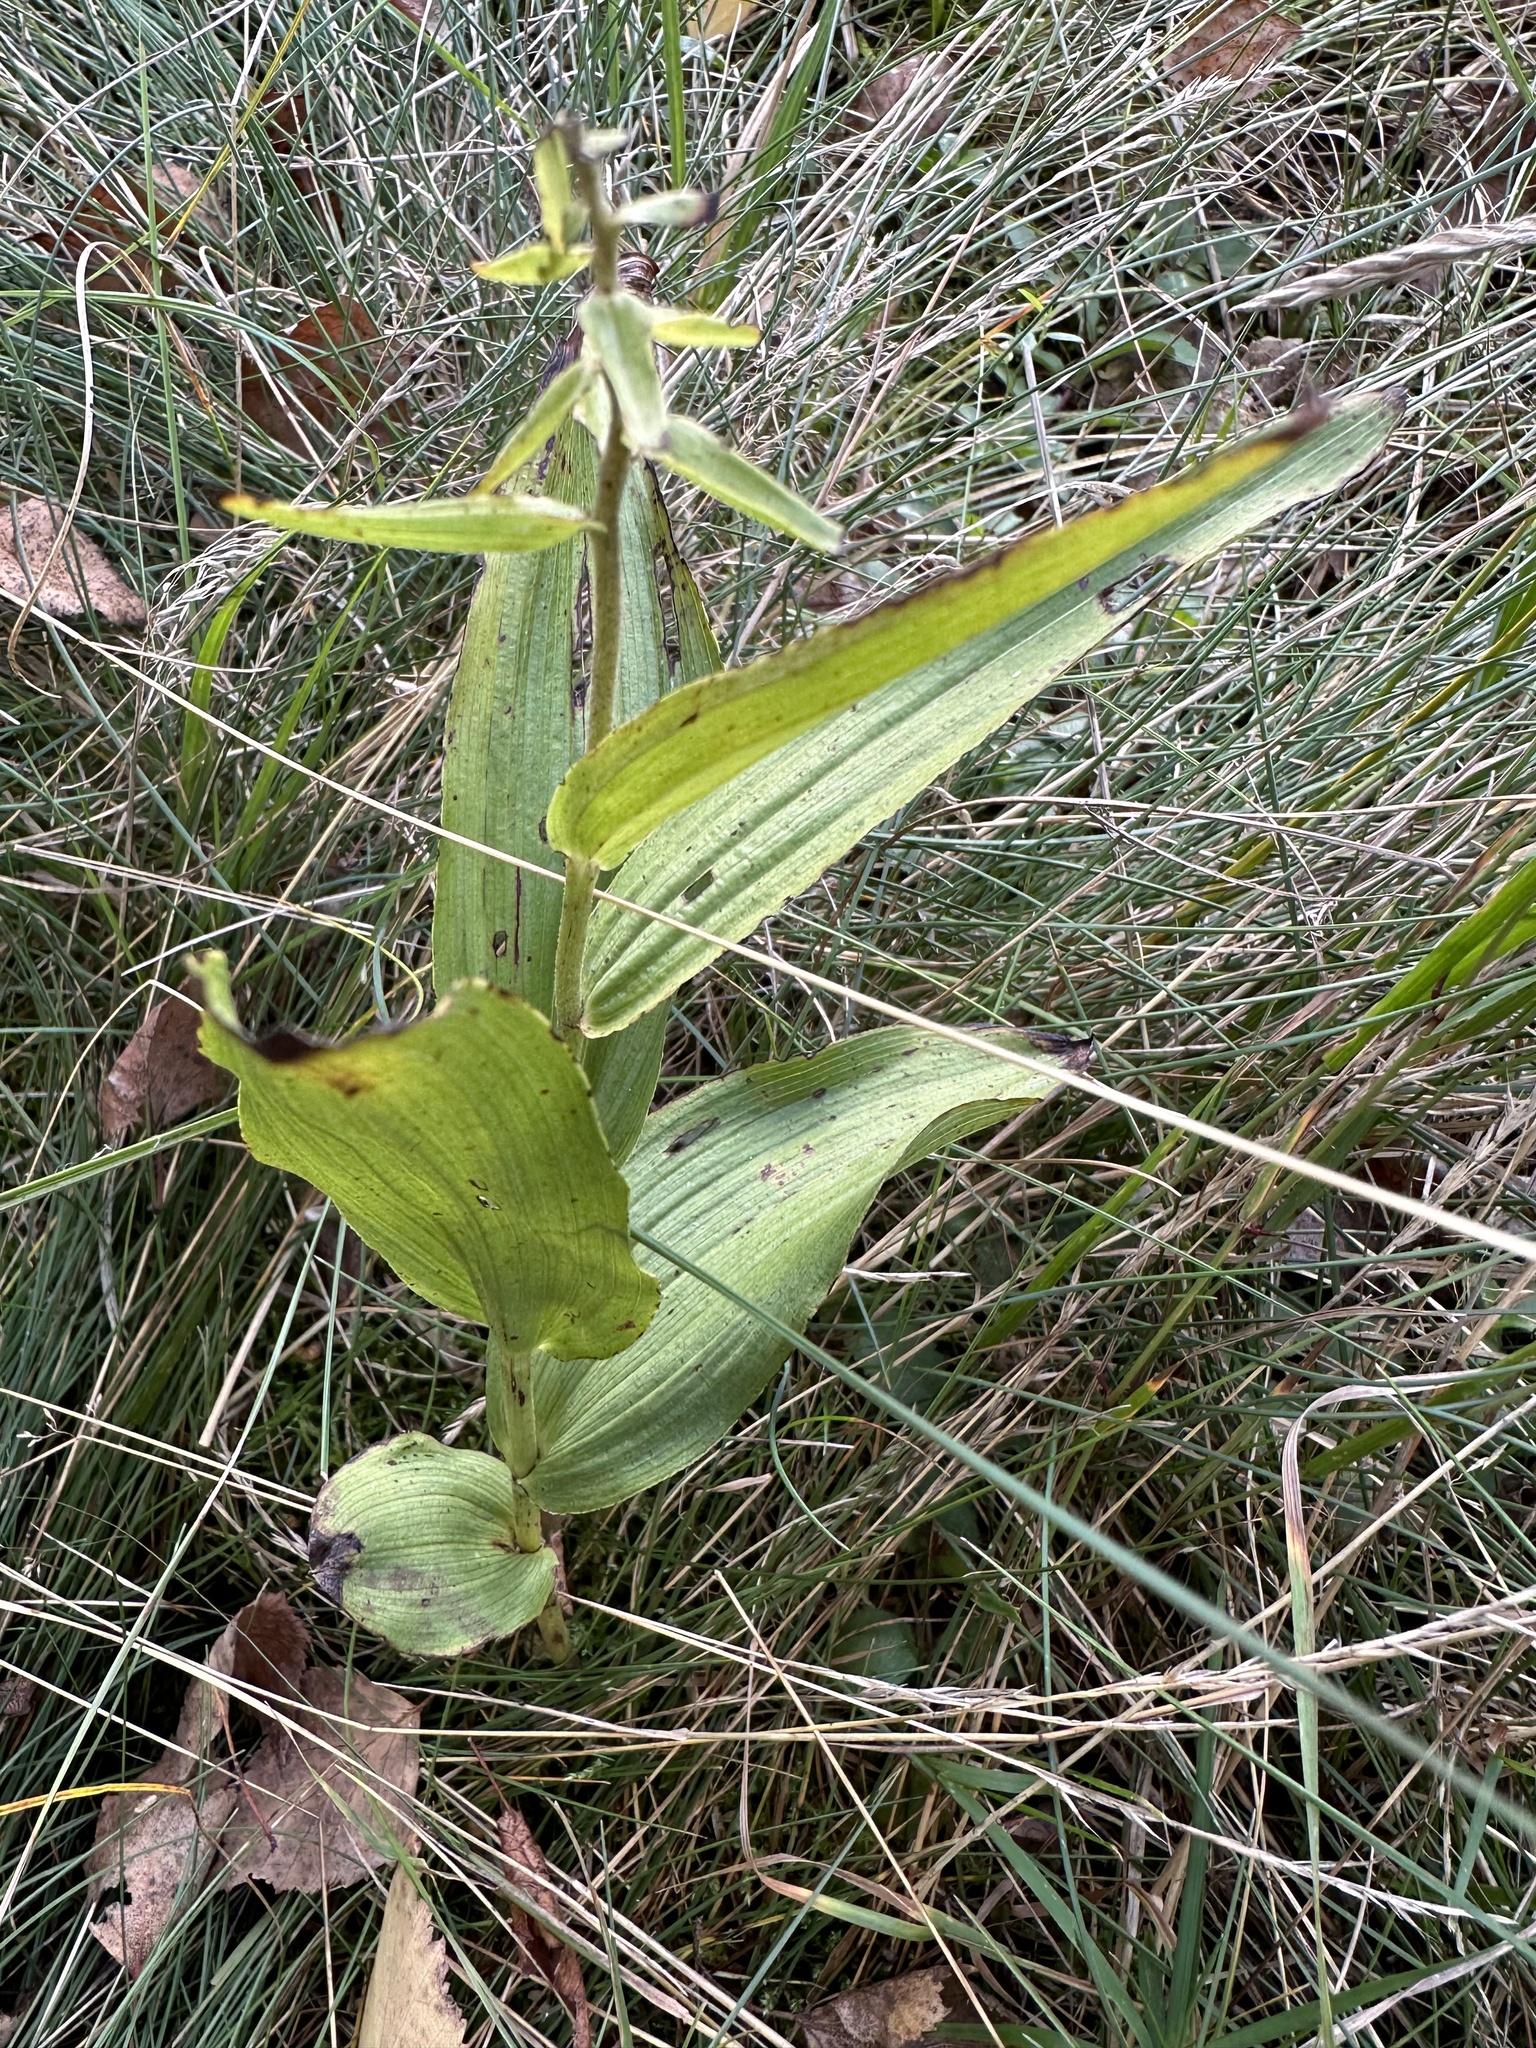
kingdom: Plantae
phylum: Tracheophyta
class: Liliopsida
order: Asparagales
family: Orchidaceae
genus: Epipactis
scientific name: Epipactis helleborine
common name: Broad-leaved helleborine
